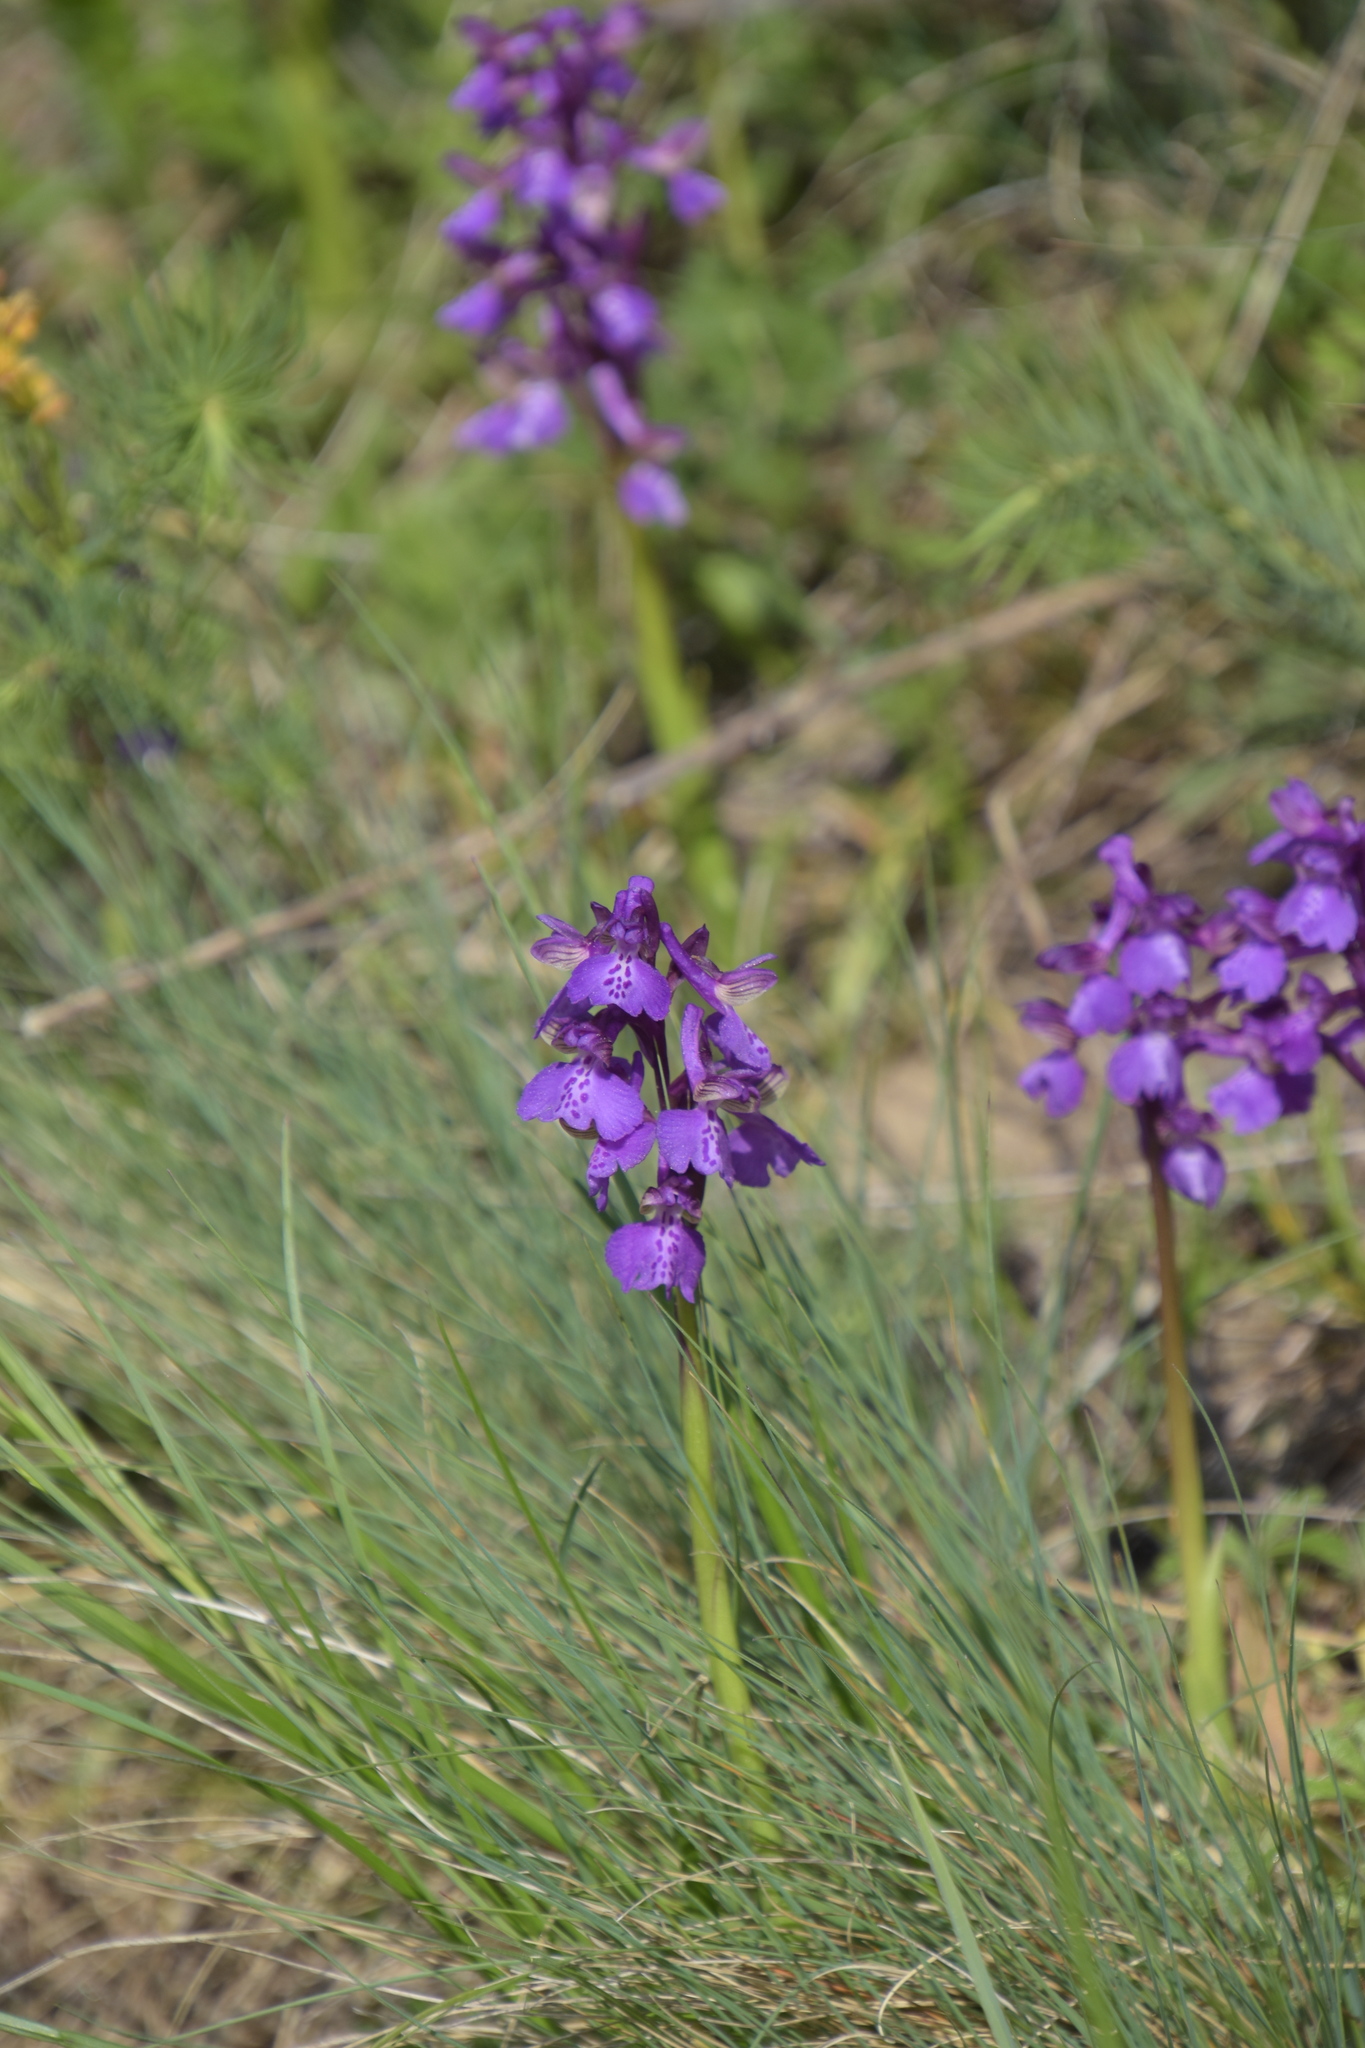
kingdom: Plantae
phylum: Tracheophyta
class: Liliopsida
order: Asparagales
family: Orchidaceae
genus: Anacamptis
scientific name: Anacamptis morio
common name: Green-winged orchid
